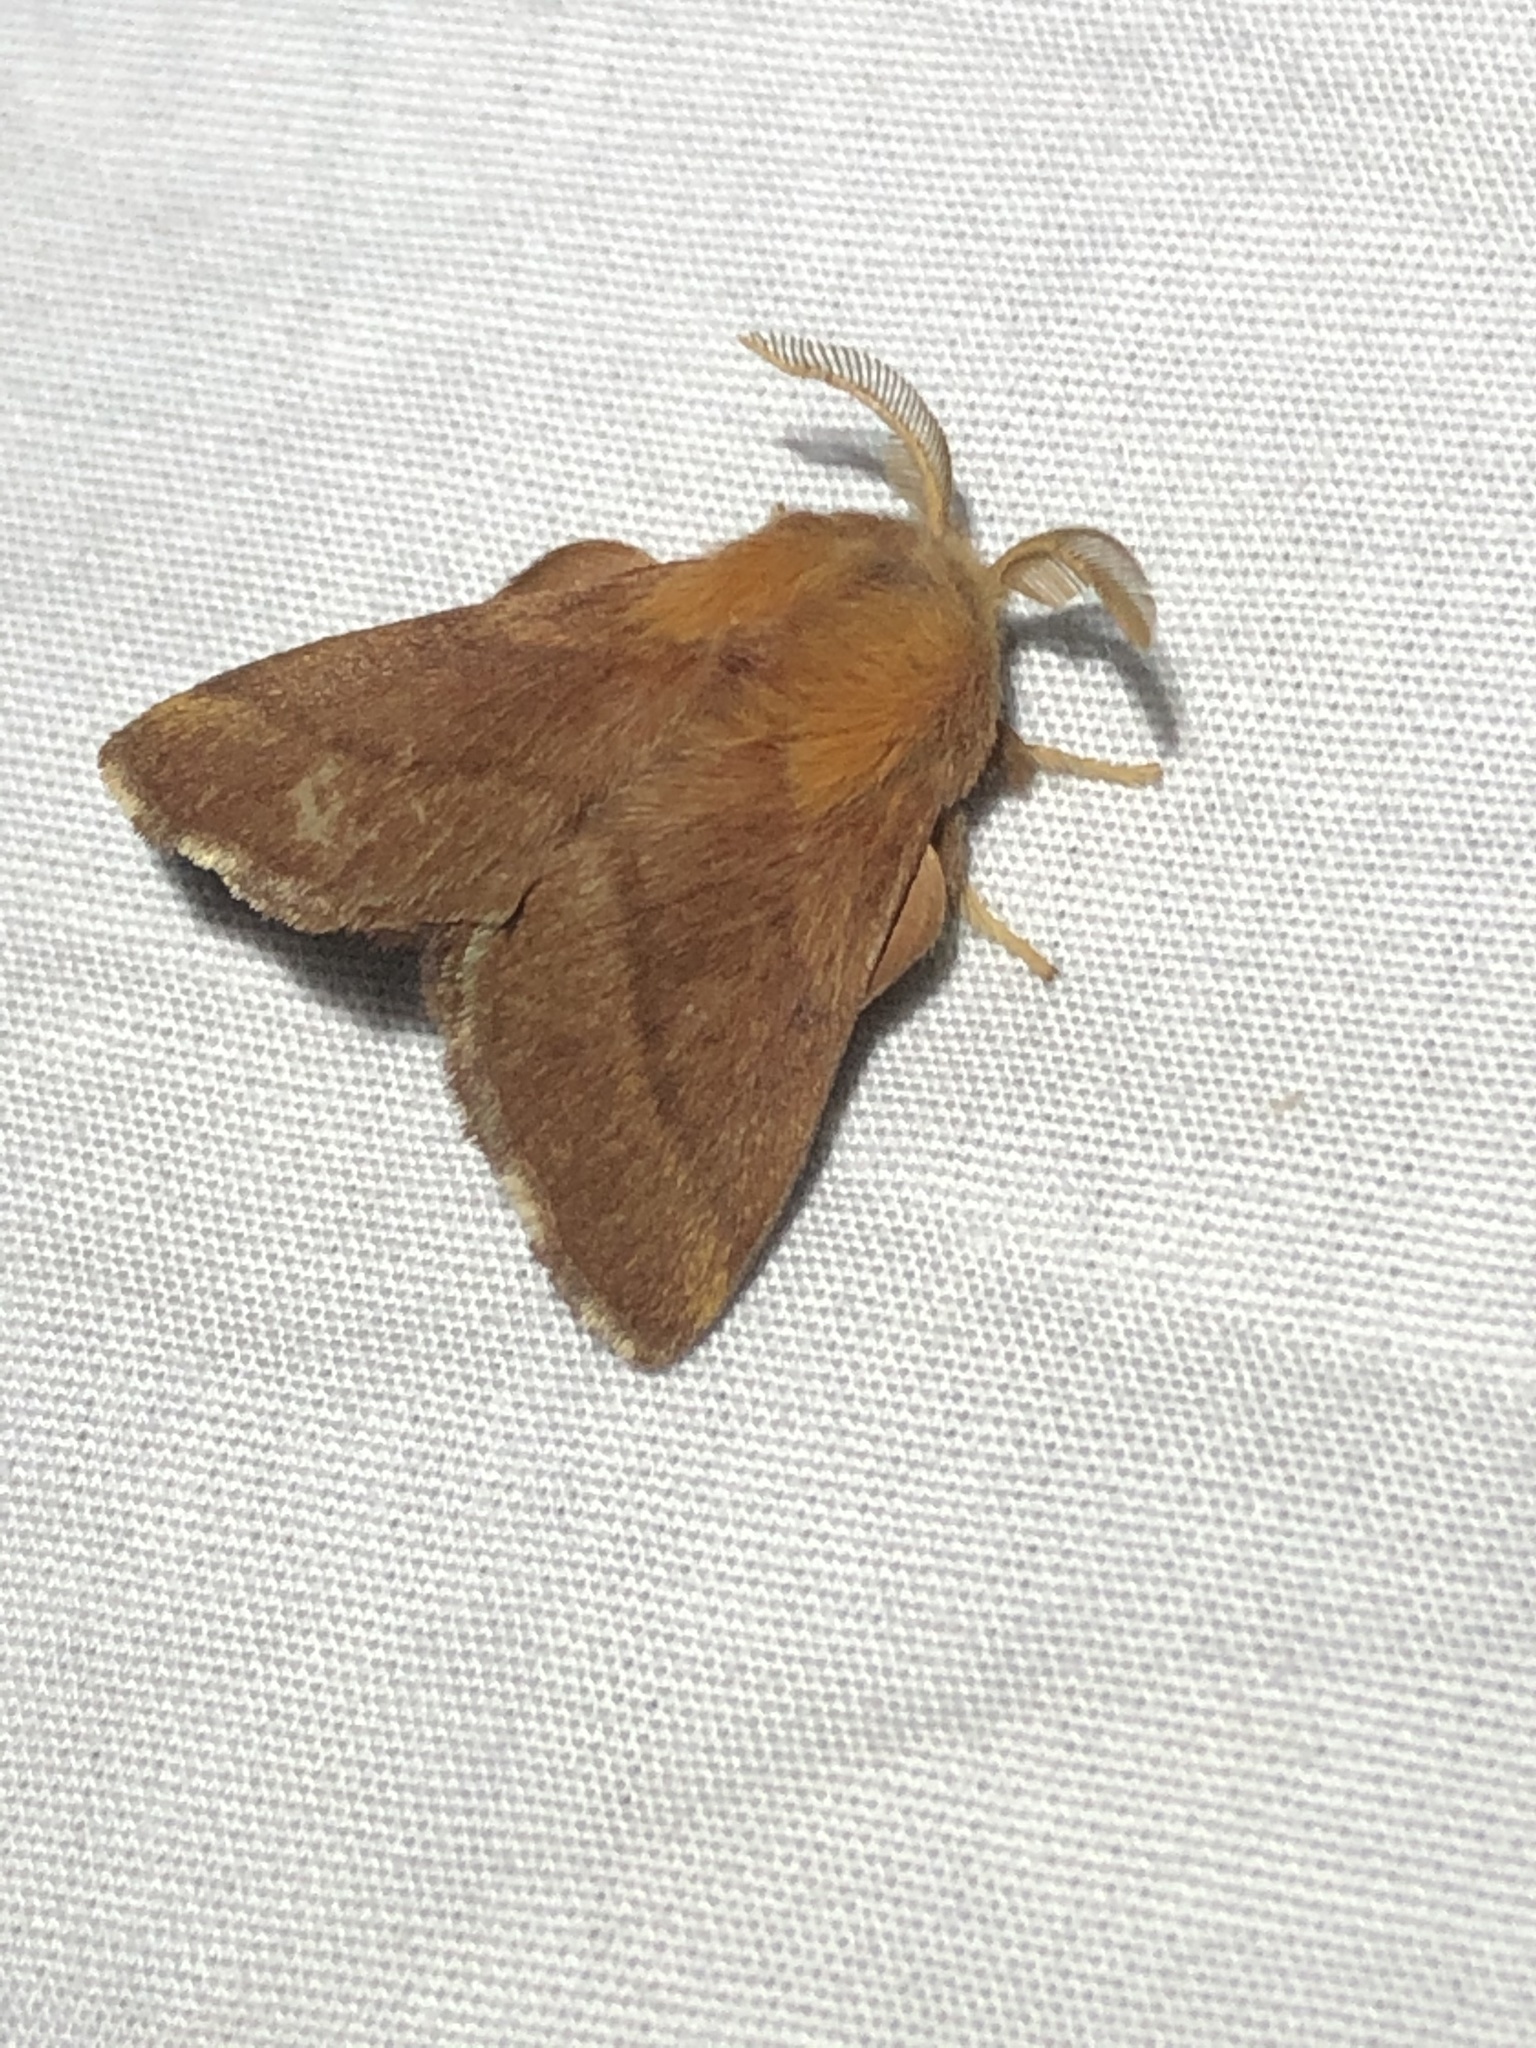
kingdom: Animalia
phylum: Arthropoda
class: Insecta
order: Lepidoptera
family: Lasiocampidae
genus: Malacosoma
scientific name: Malacosoma disstria
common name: Forest tent caterpillar
